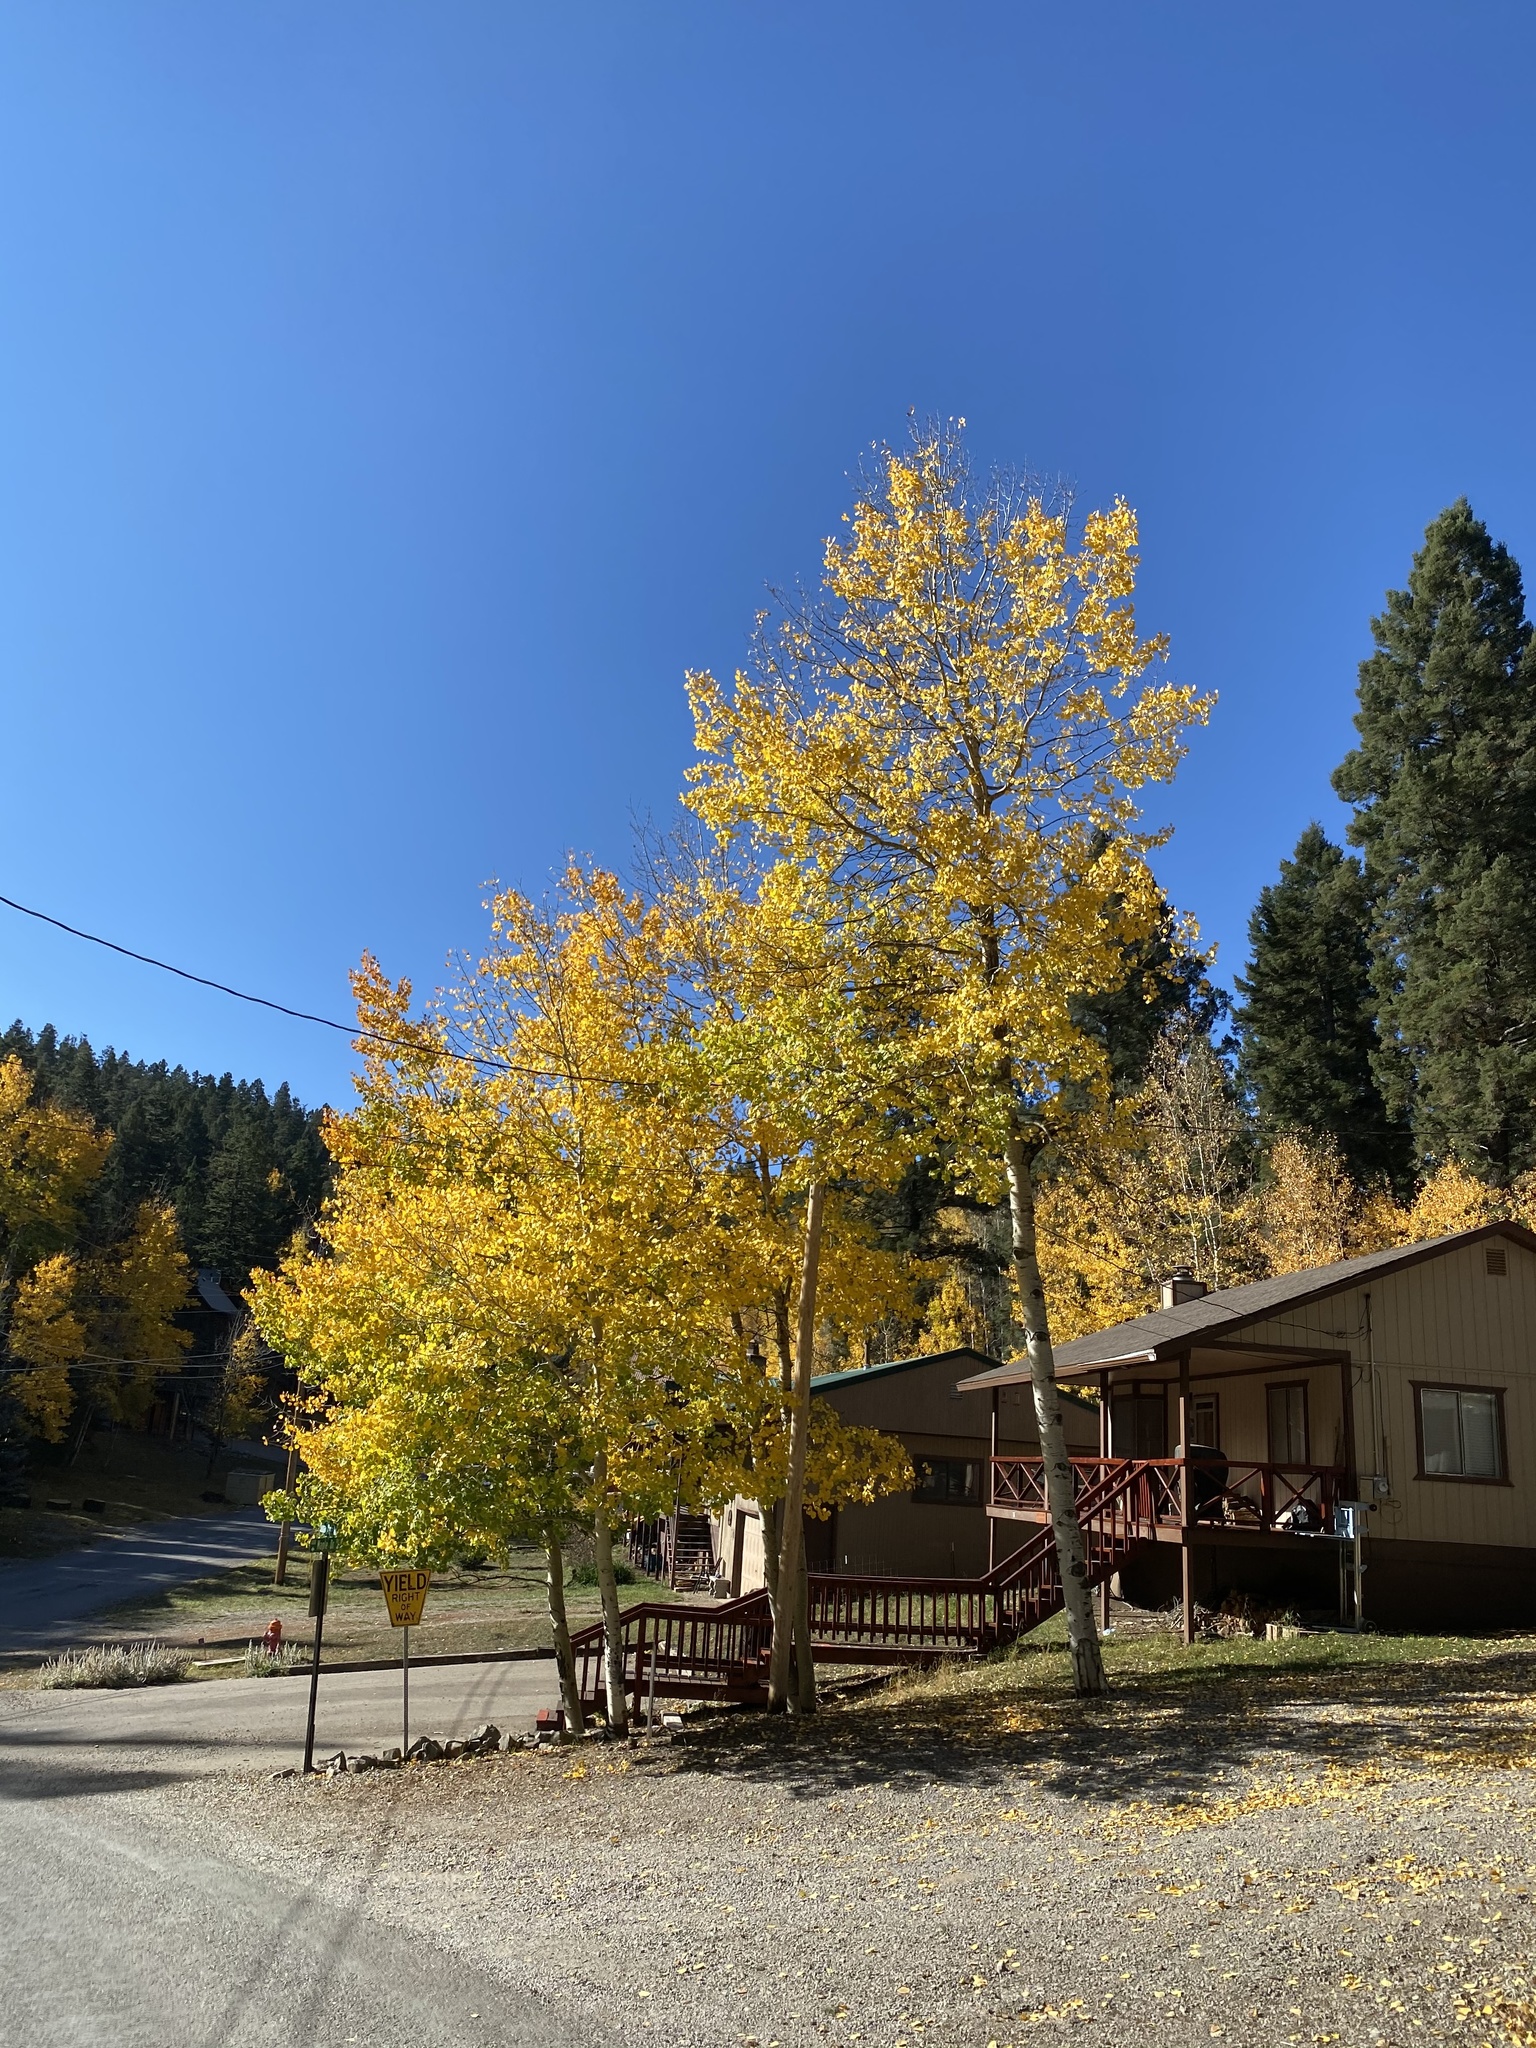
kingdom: Plantae
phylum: Tracheophyta
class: Magnoliopsida
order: Malpighiales
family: Salicaceae
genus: Populus
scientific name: Populus tremuloides
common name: Quaking aspen
